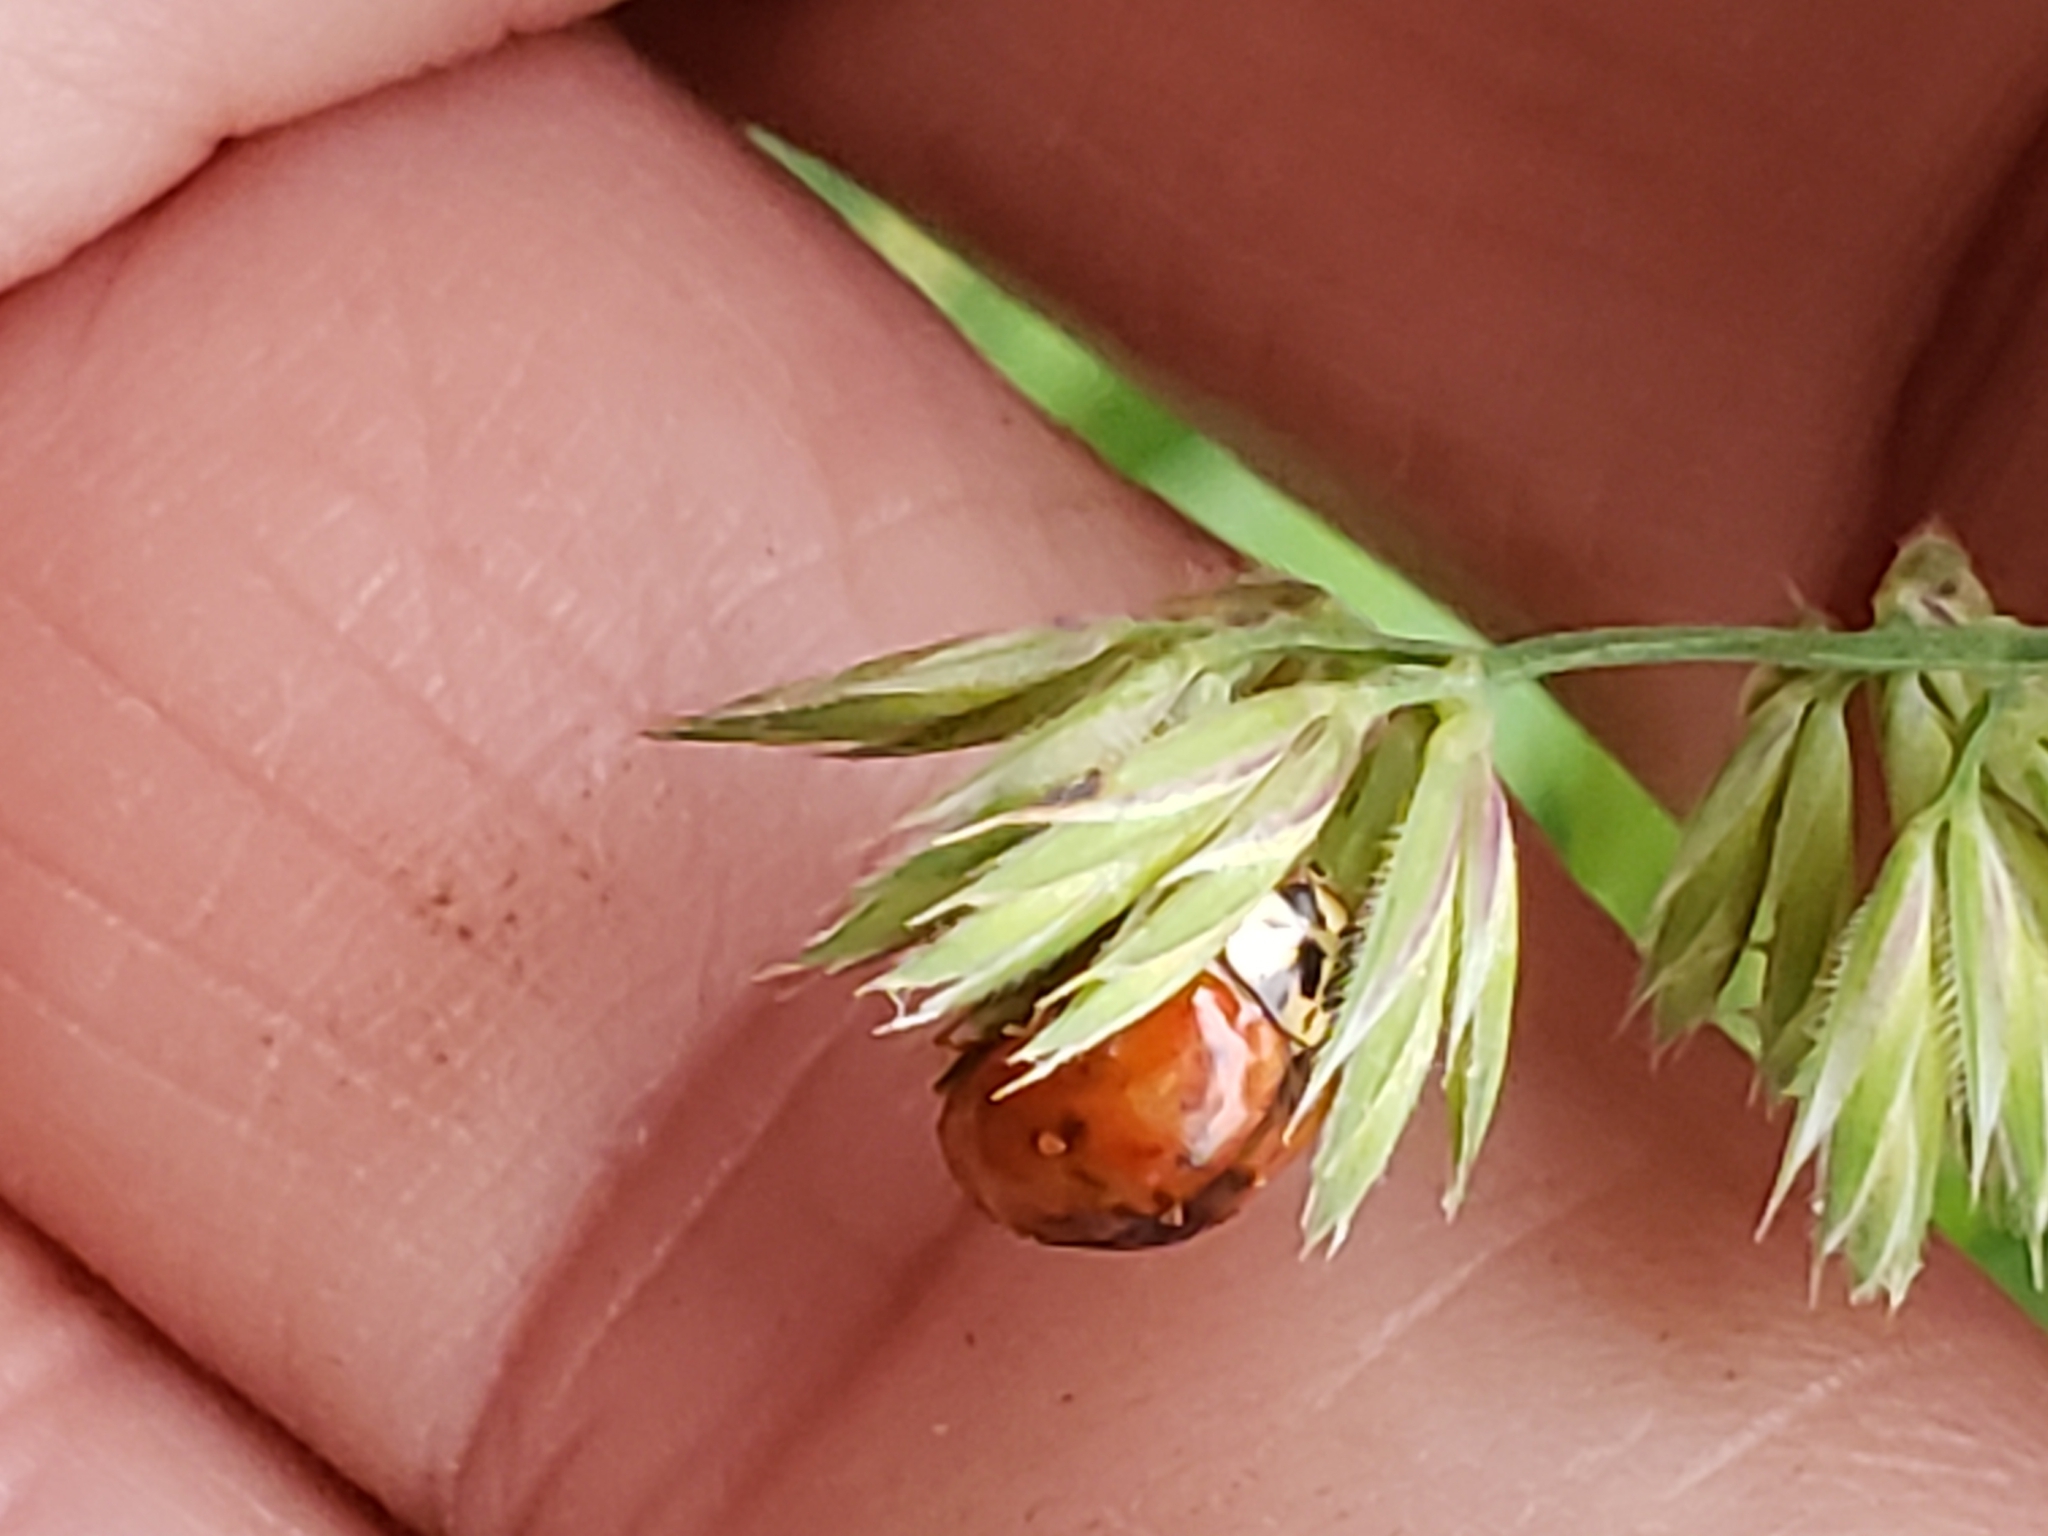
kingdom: Animalia
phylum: Arthropoda
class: Insecta
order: Coleoptera
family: Coccinellidae
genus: Harmonia
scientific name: Harmonia axyridis
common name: Harlequin ladybird
